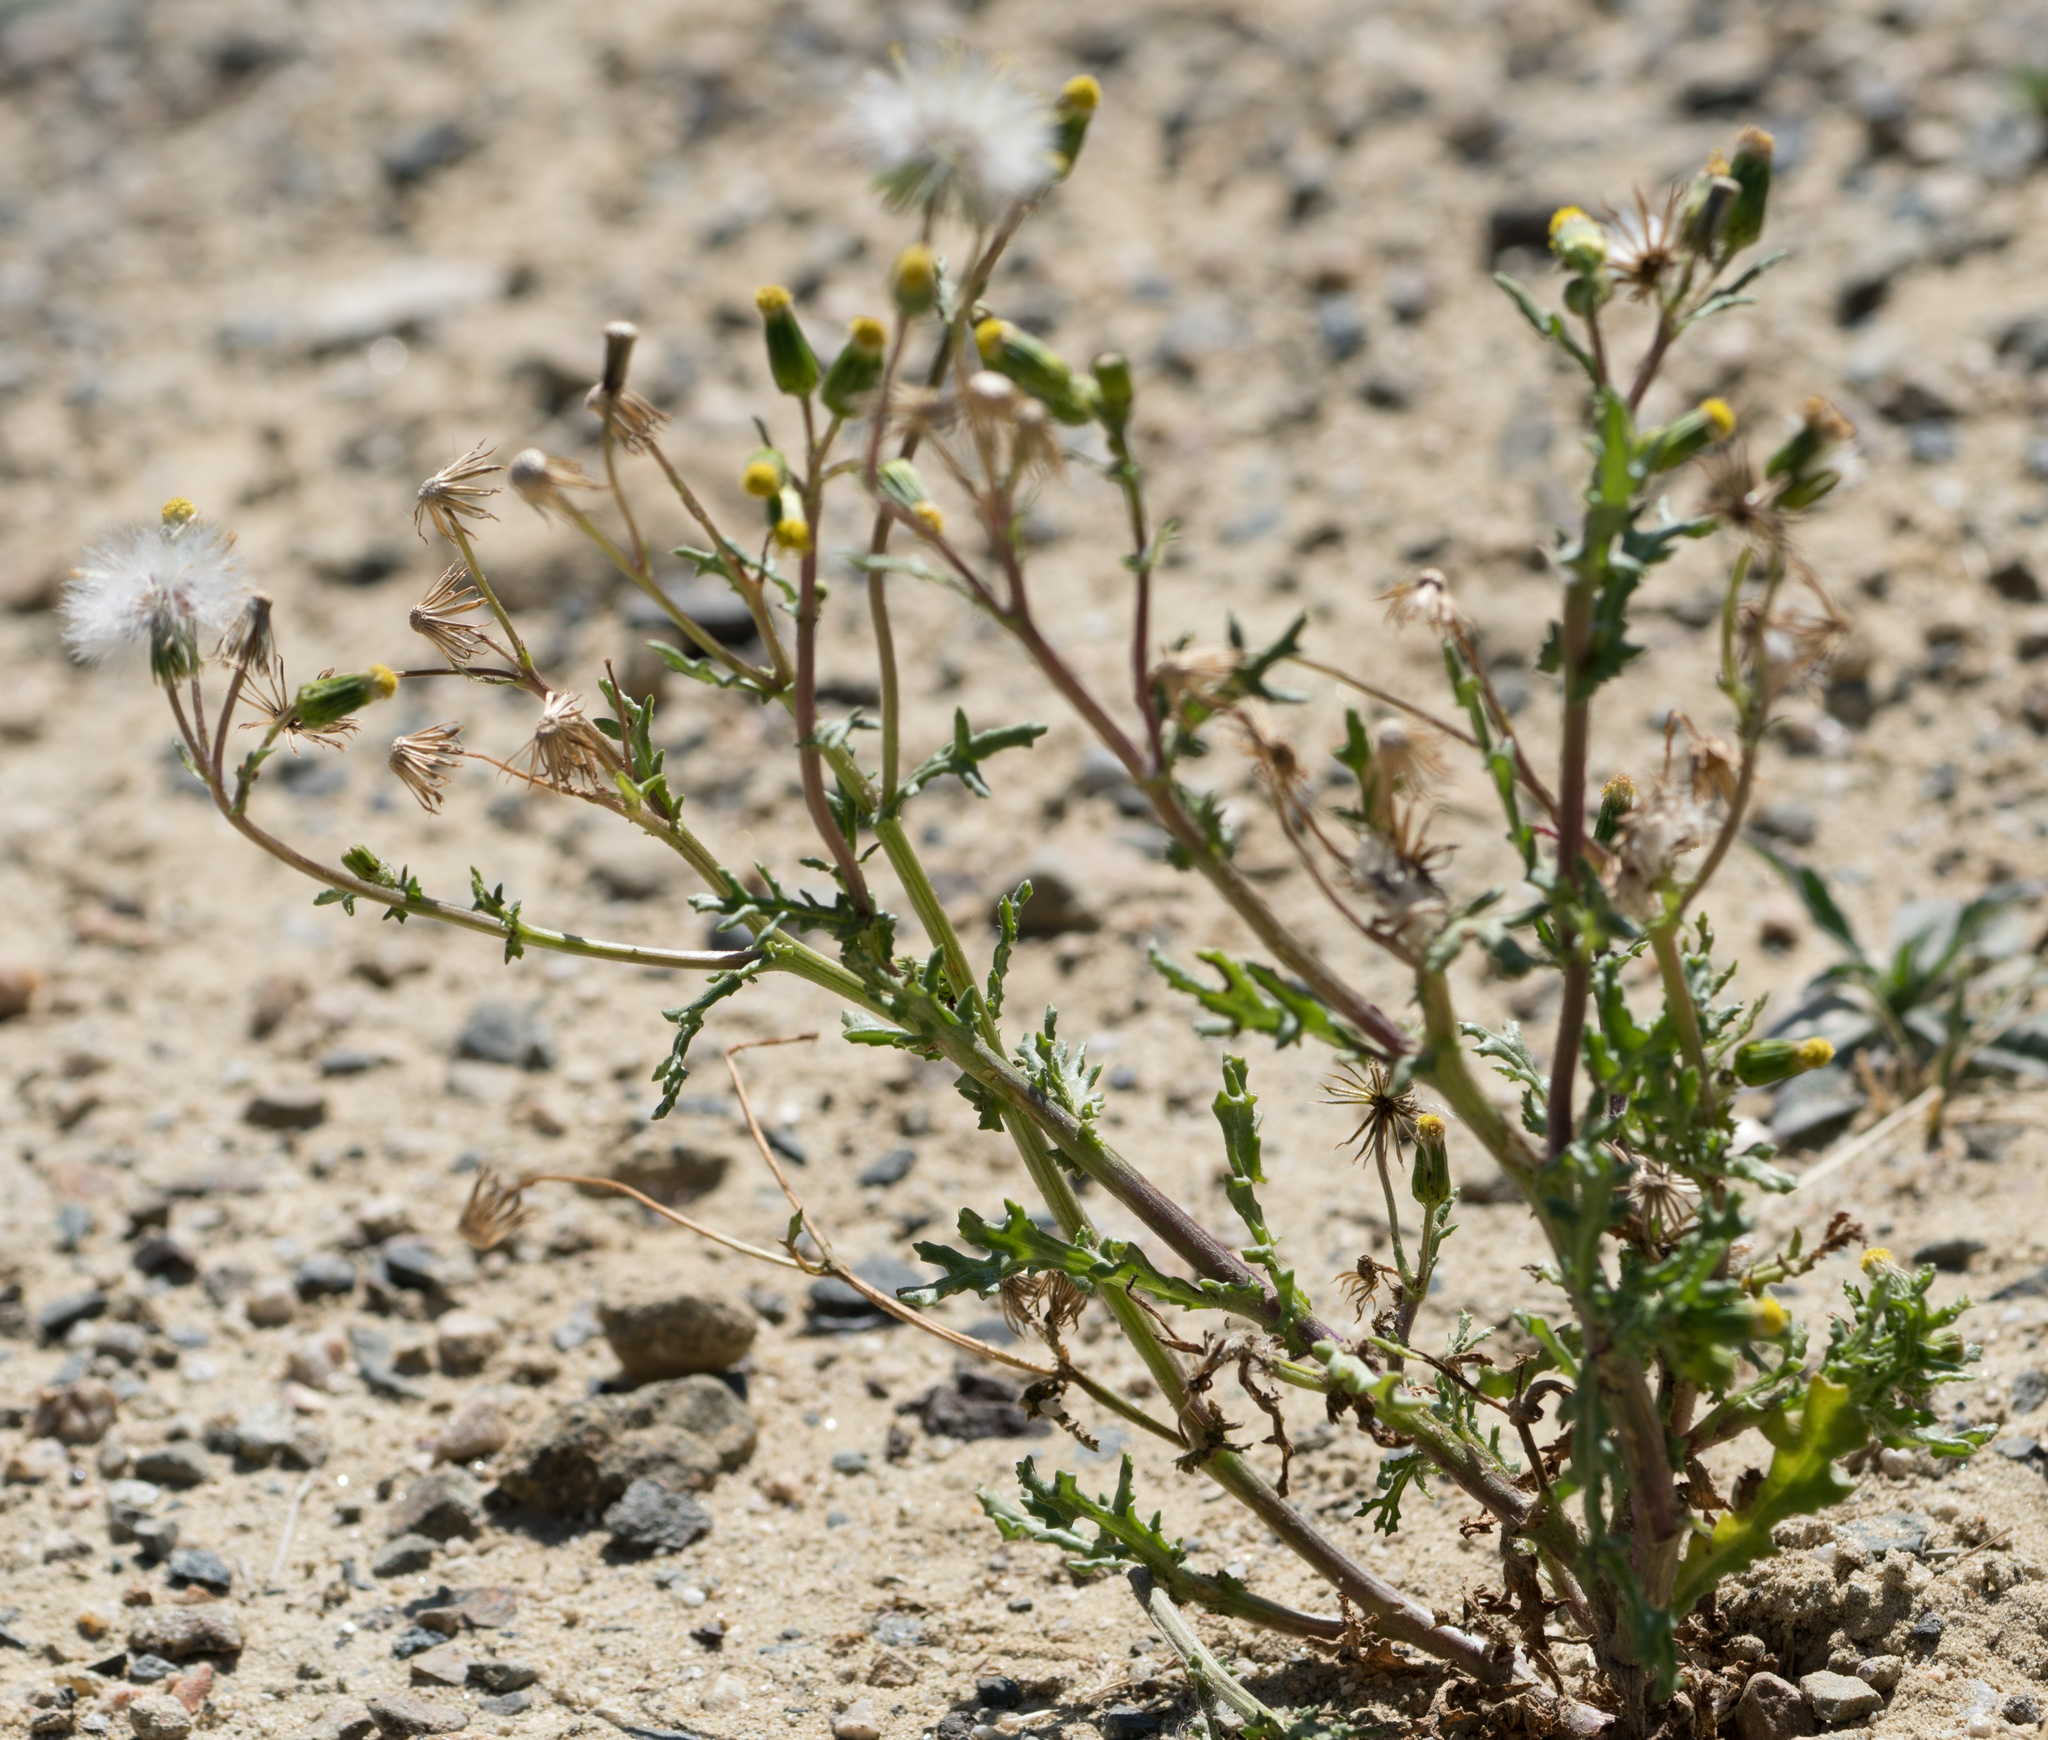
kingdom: Plantae
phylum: Tracheophyta
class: Magnoliopsida
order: Asterales
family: Asteraceae
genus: Senecio
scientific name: Senecio vulgaris
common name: Old-man-in-the-spring
